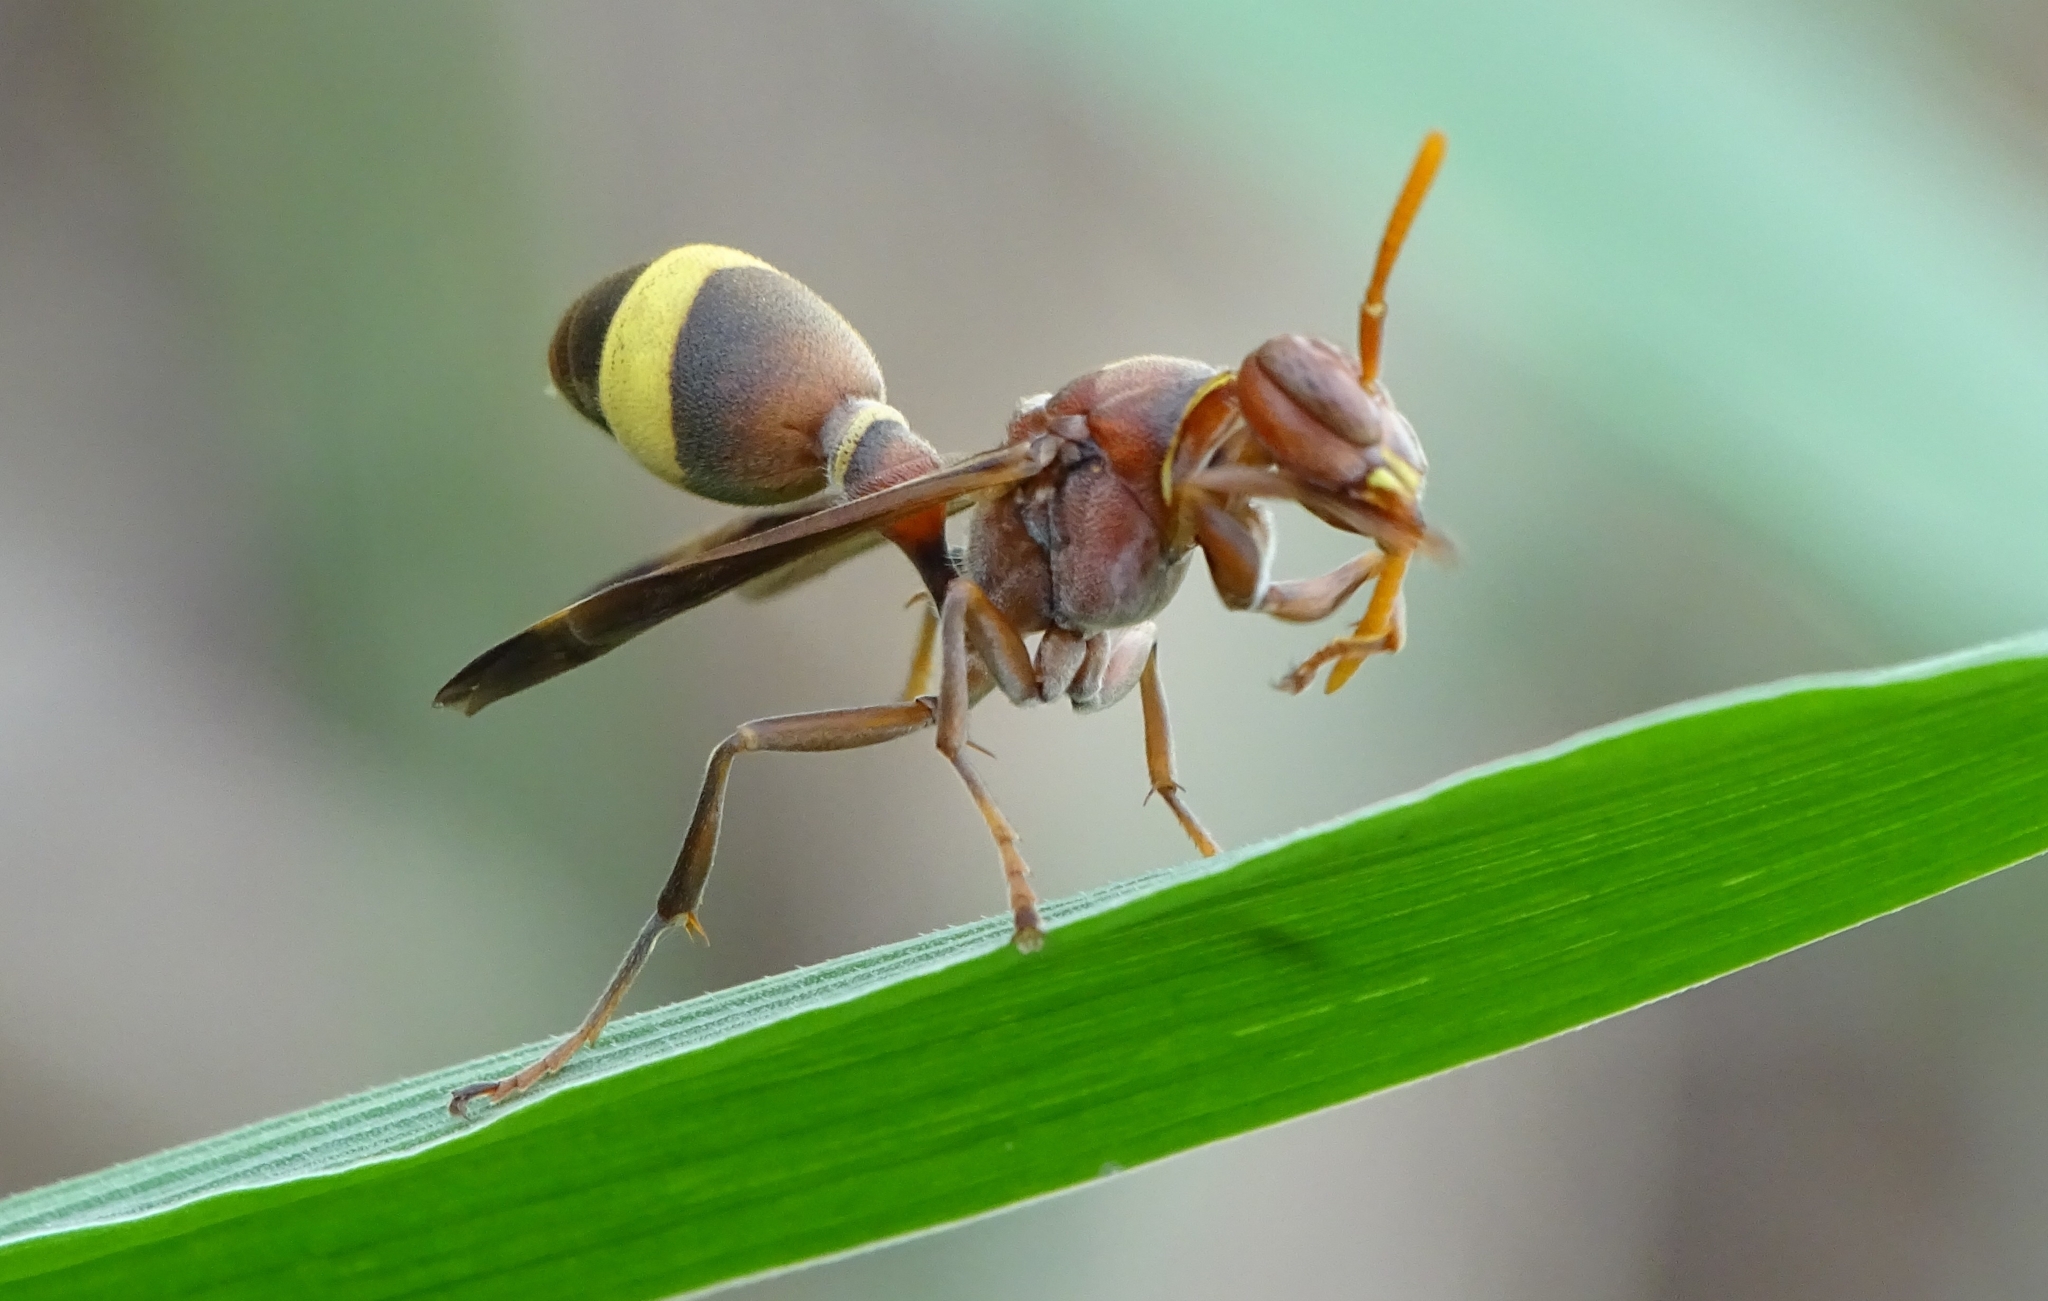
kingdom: Animalia
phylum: Arthropoda
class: Insecta
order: Hymenoptera
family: Vespidae
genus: Ropalidia
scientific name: Ropalidia
